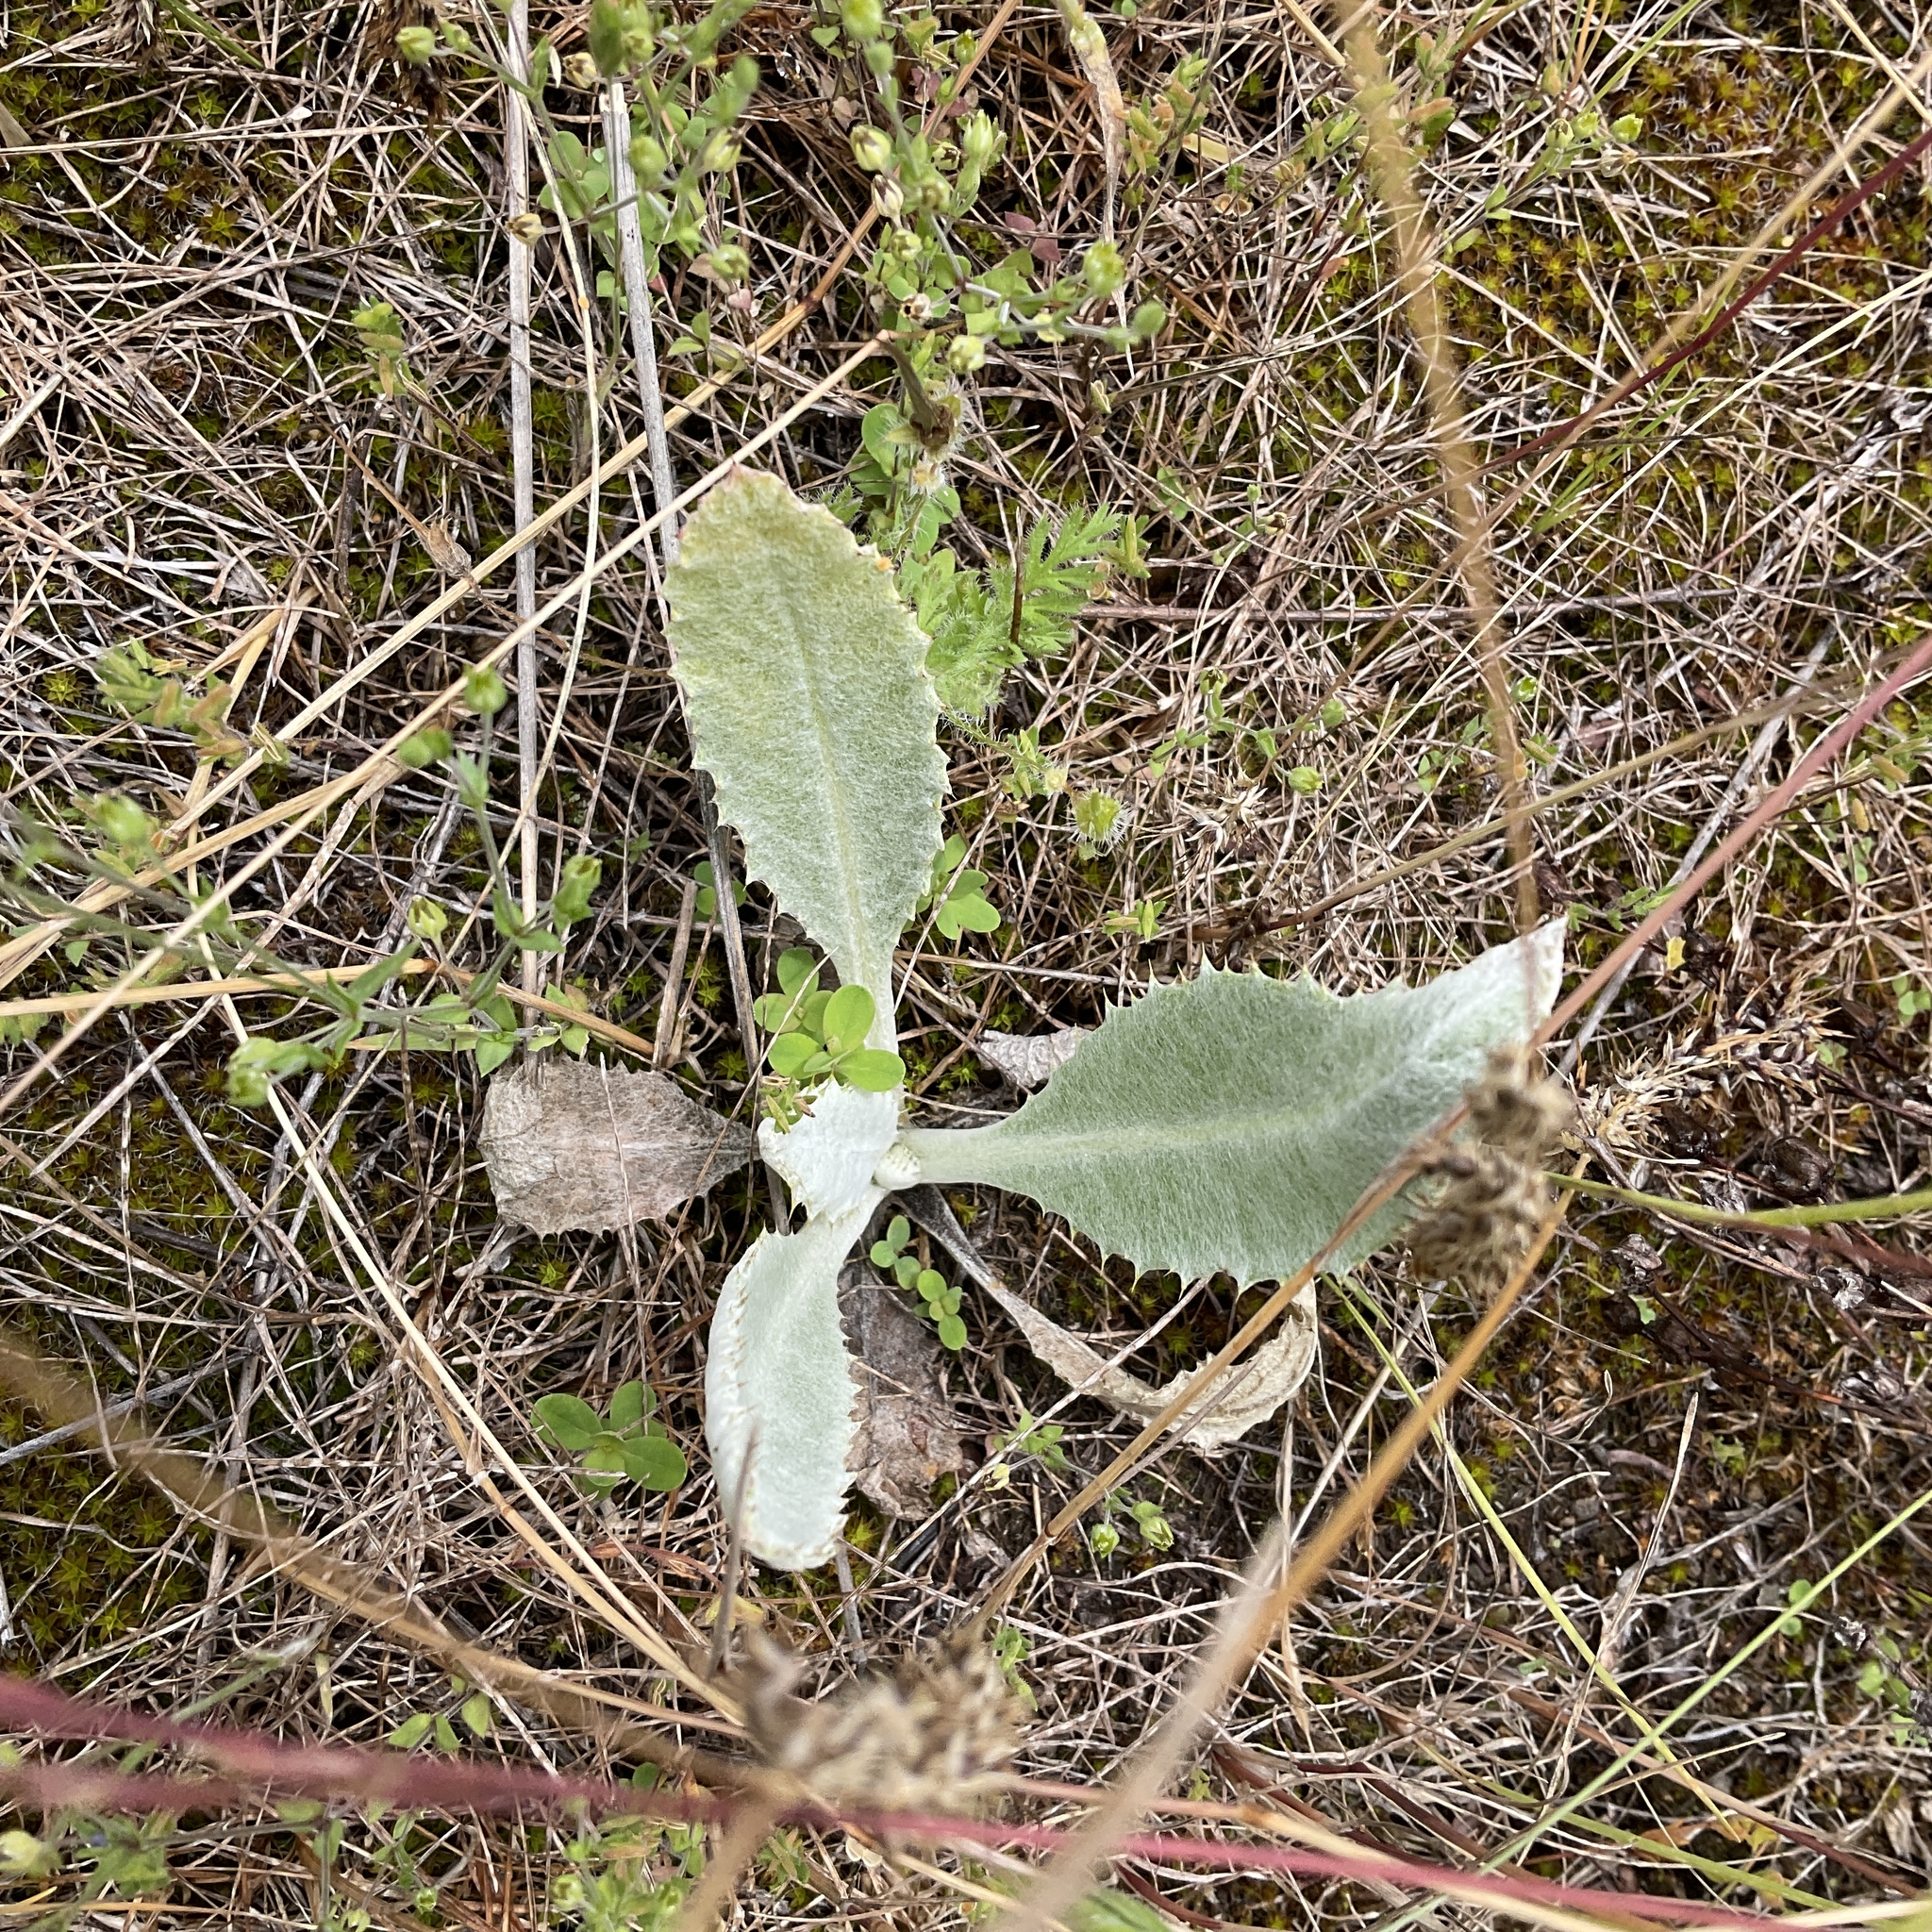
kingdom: Plantae
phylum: Tracheophyta
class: Magnoliopsida
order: Asterales
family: Asteraceae
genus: Onopordum
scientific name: Onopordum acanthium
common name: Scotch thistle
